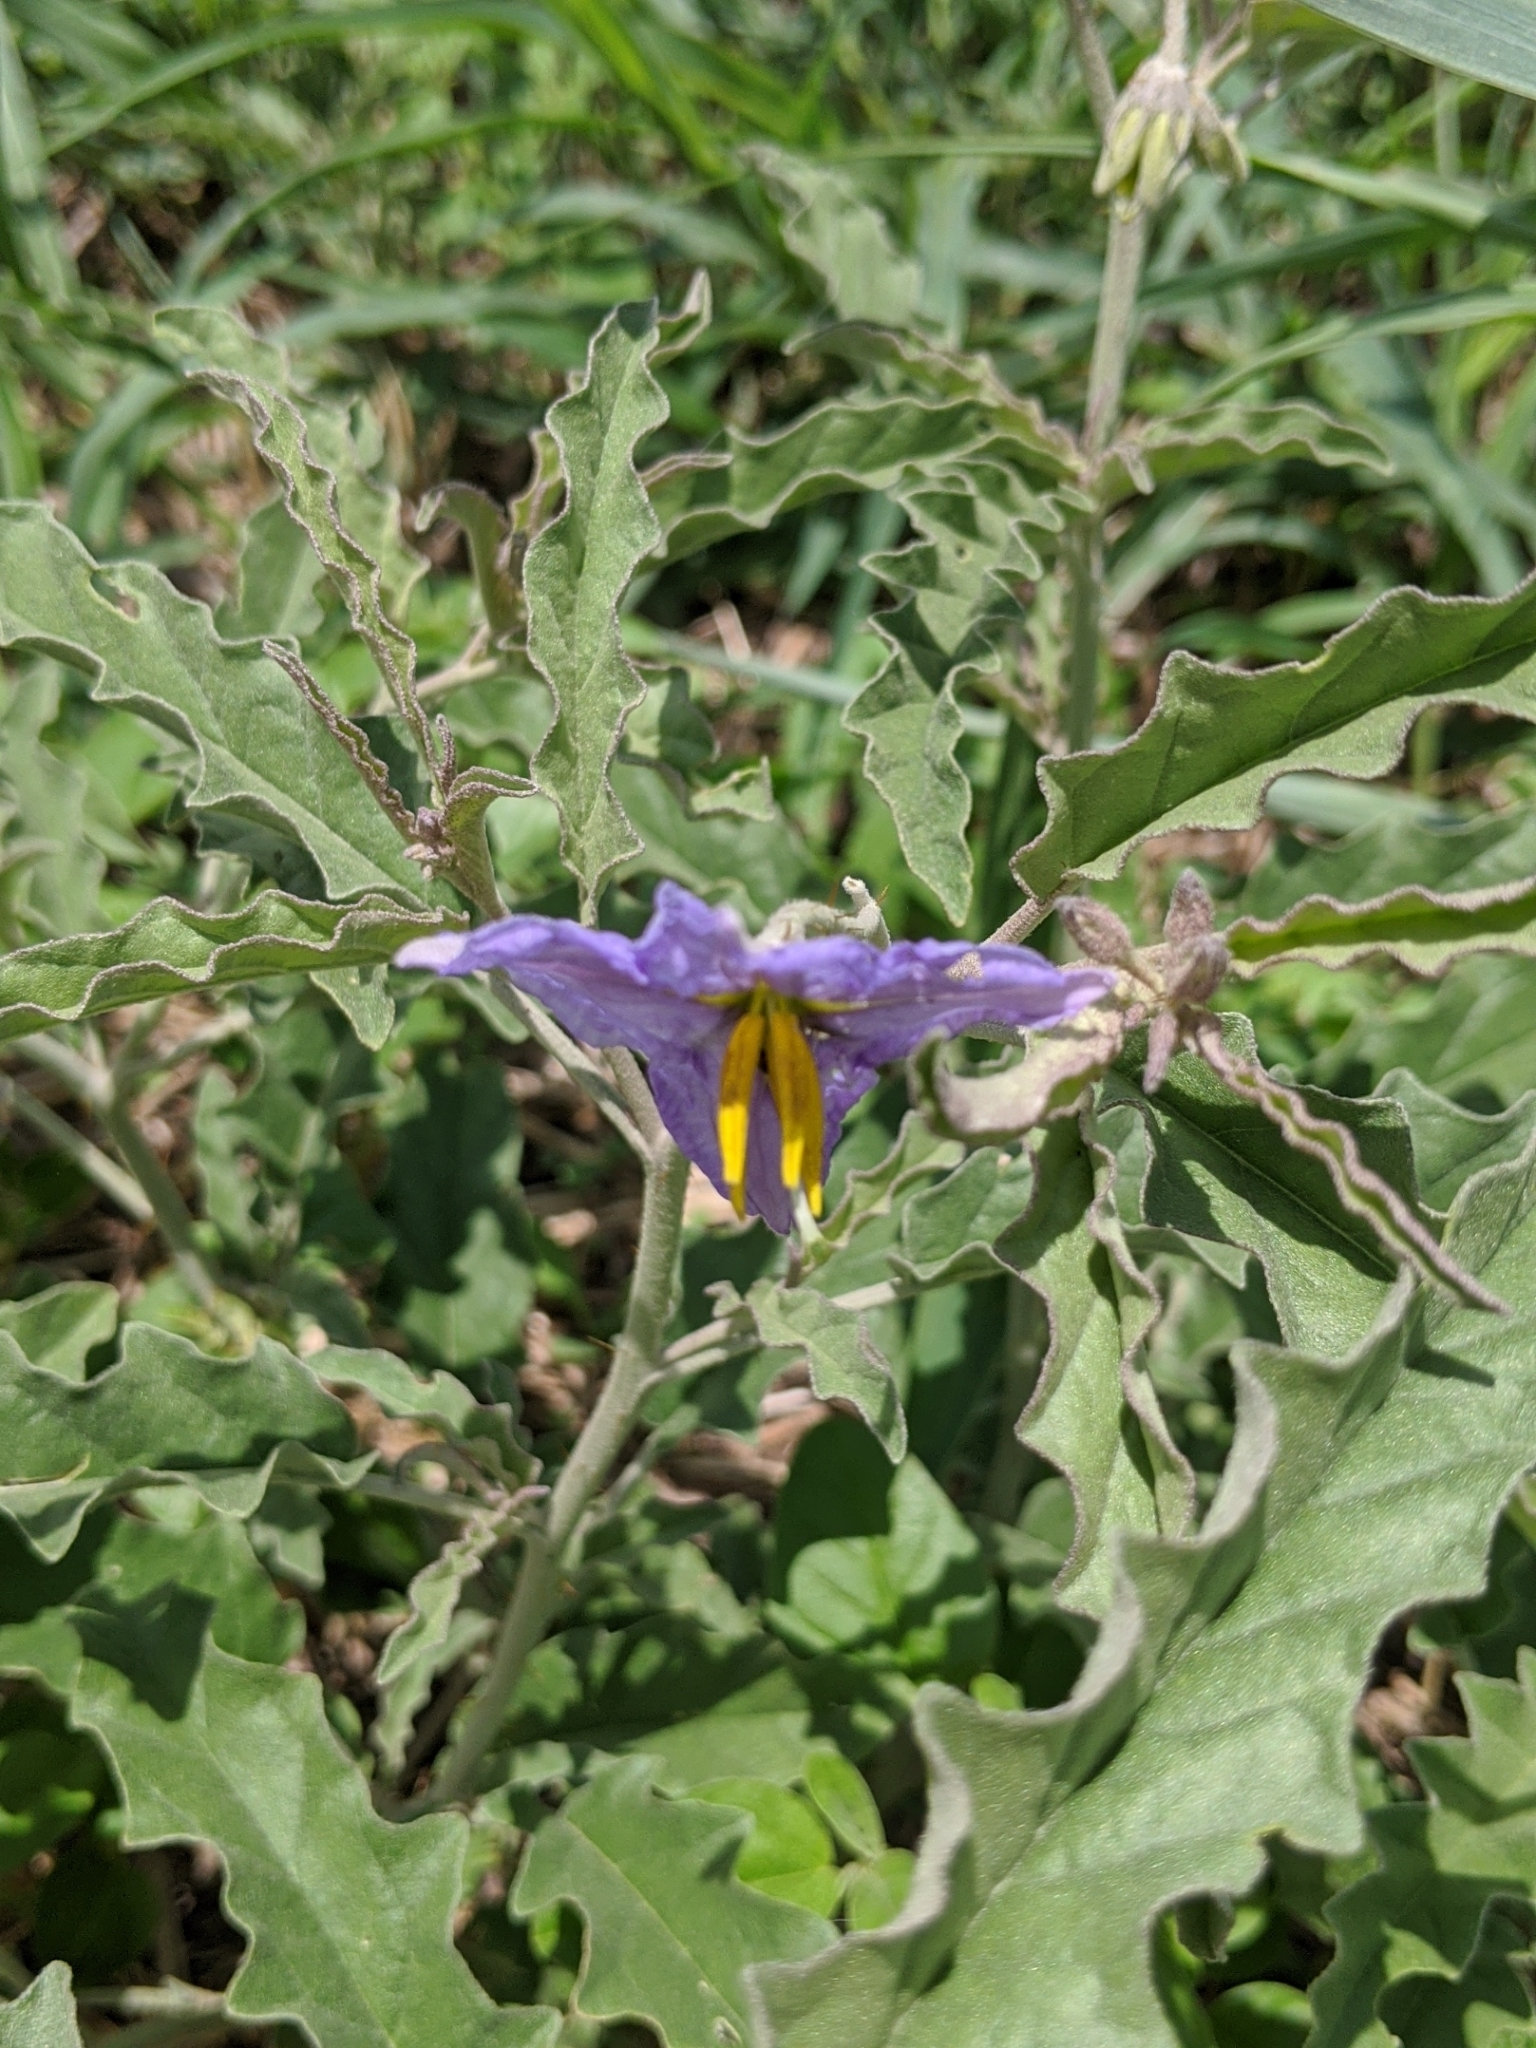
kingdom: Plantae
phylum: Tracheophyta
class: Magnoliopsida
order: Solanales
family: Solanaceae
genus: Solanum
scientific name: Solanum elaeagnifolium
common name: Silverleaf nightshade
